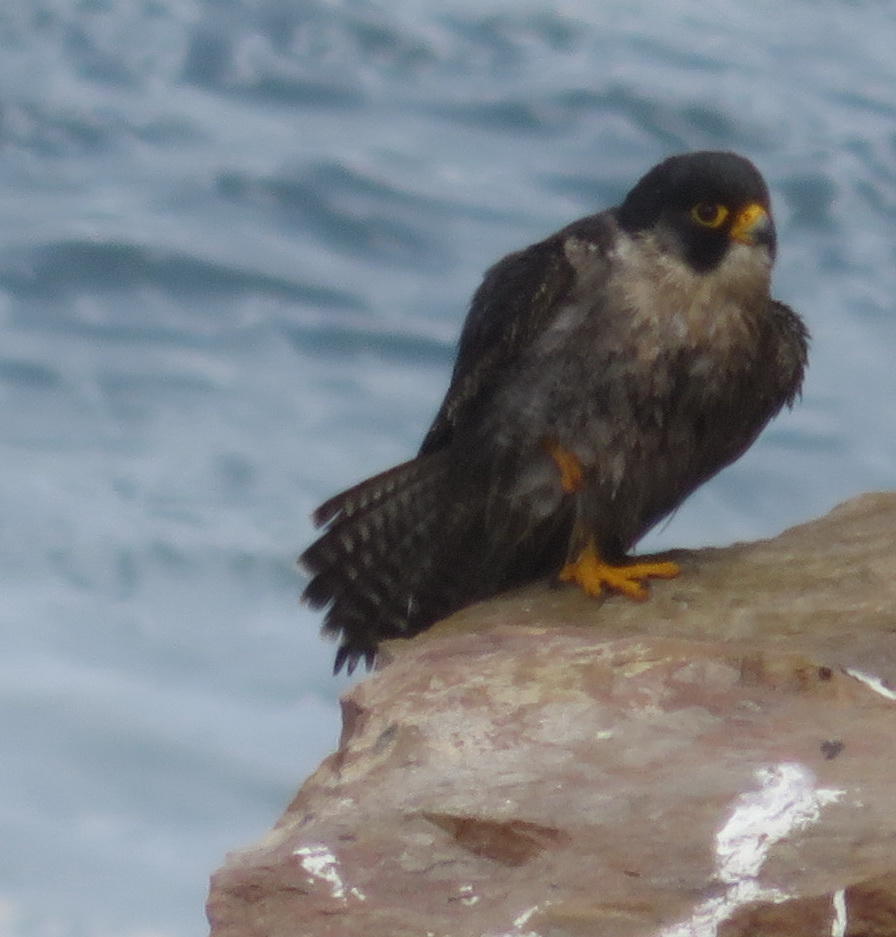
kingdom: Animalia
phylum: Chordata
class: Aves
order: Falconiformes
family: Falconidae
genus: Falco
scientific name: Falco peregrinus
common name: Peregrine falcon
